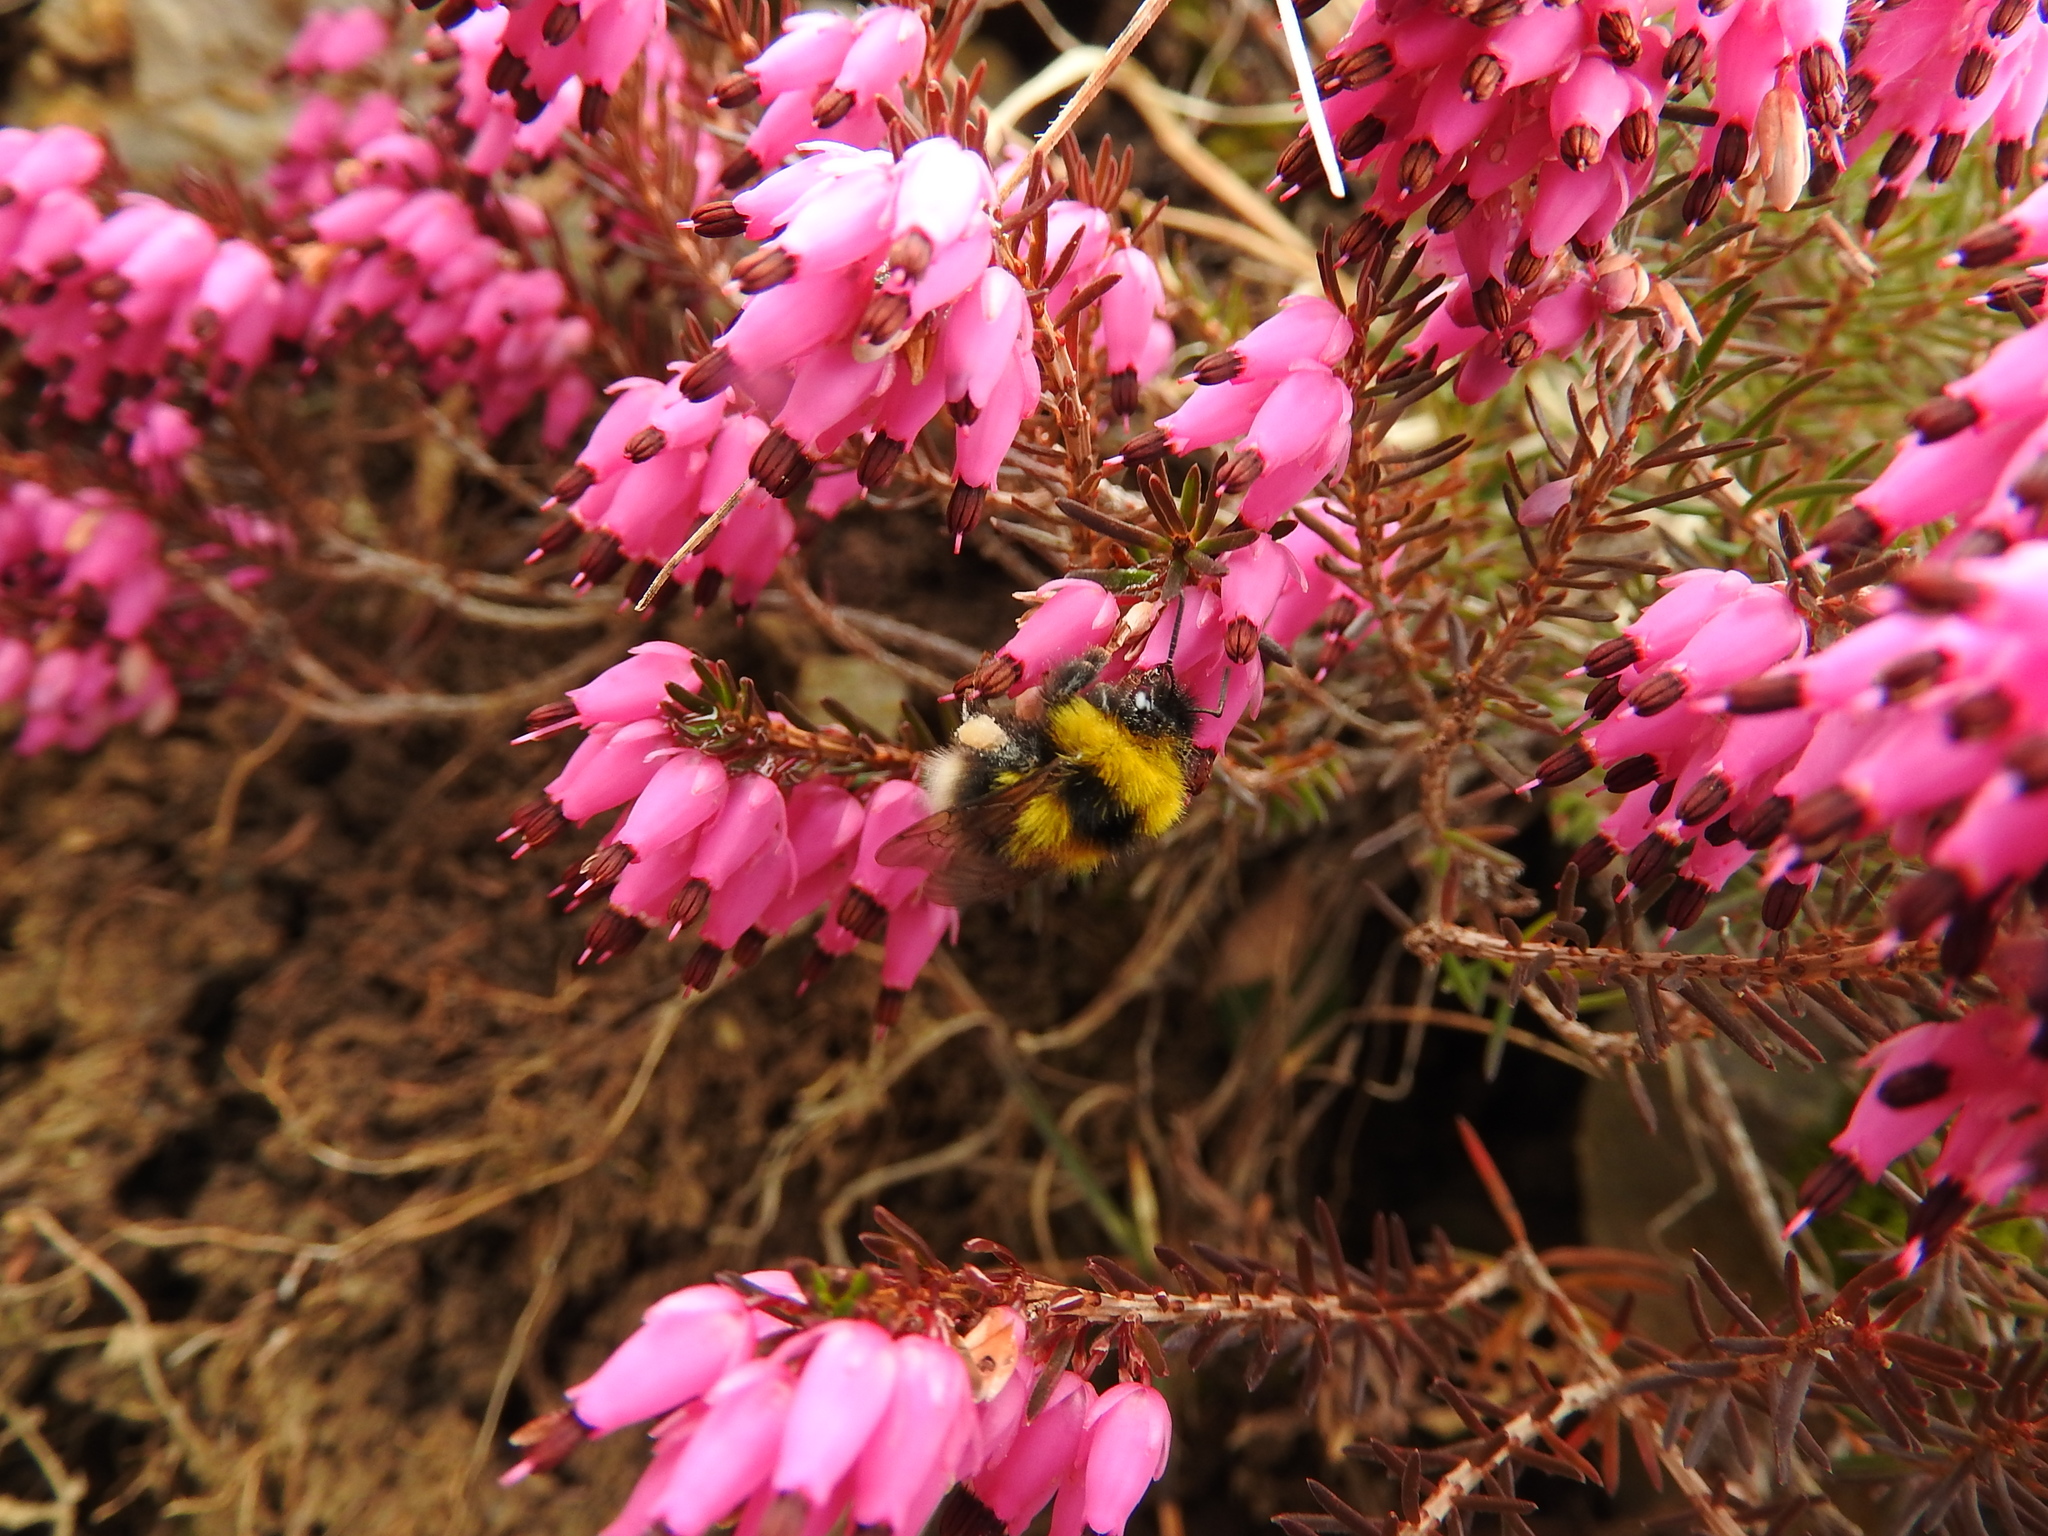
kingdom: Animalia
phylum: Arthropoda
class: Insecta
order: Hymenoptera
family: Apidae
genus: Bombus
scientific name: Bombus jonellus
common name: Heath humble-bee
